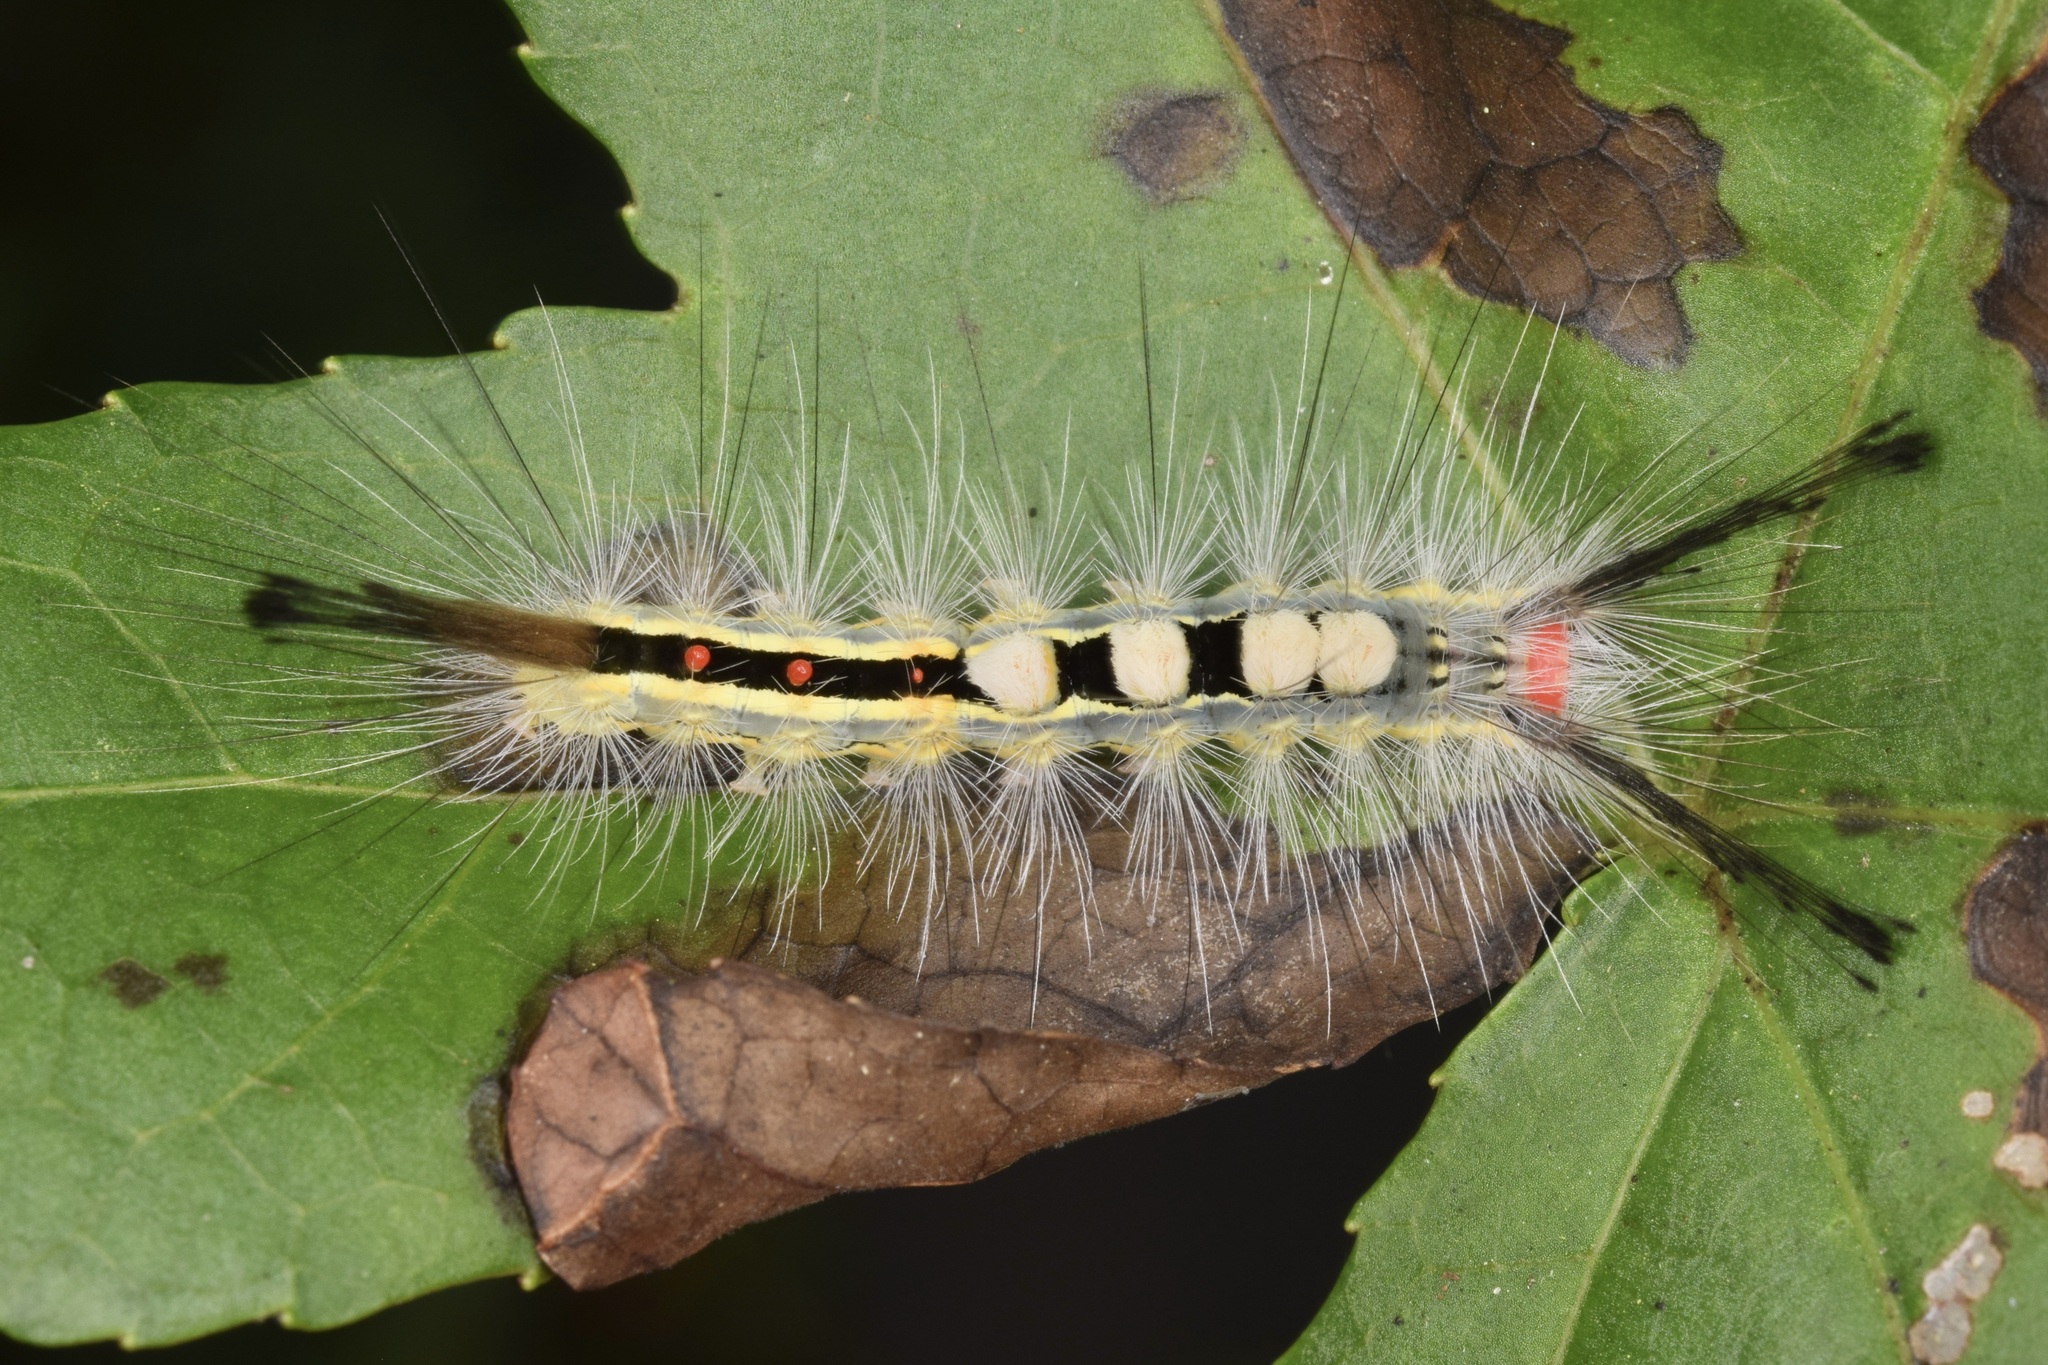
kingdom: Animalia
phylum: Arthropoda
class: Insecta
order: Lepidoptera
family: Erebidae
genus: Orgyia
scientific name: Orgyia leucostigma
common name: White-marked tussock moth
